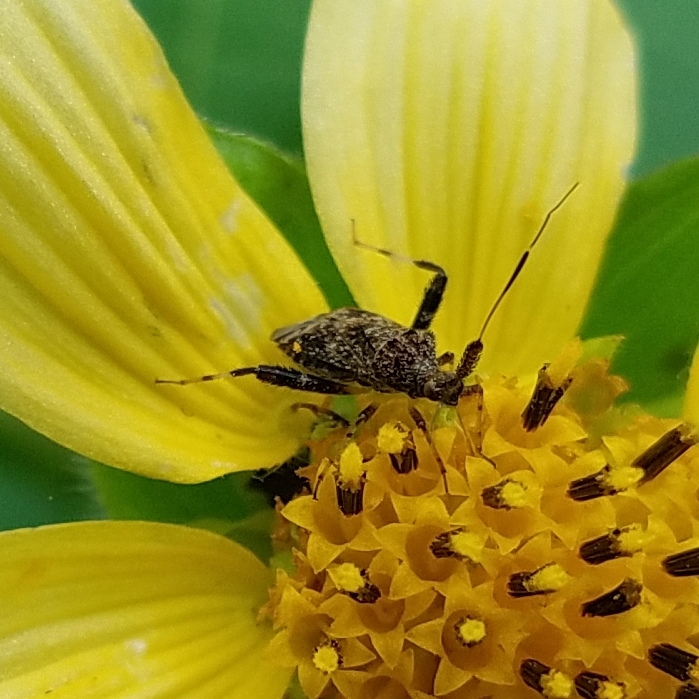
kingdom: Animalia
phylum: Arthropoda
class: Insecta
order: Hemiptera
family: Miridae
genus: Neurocolpus
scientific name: Neurocolpus
